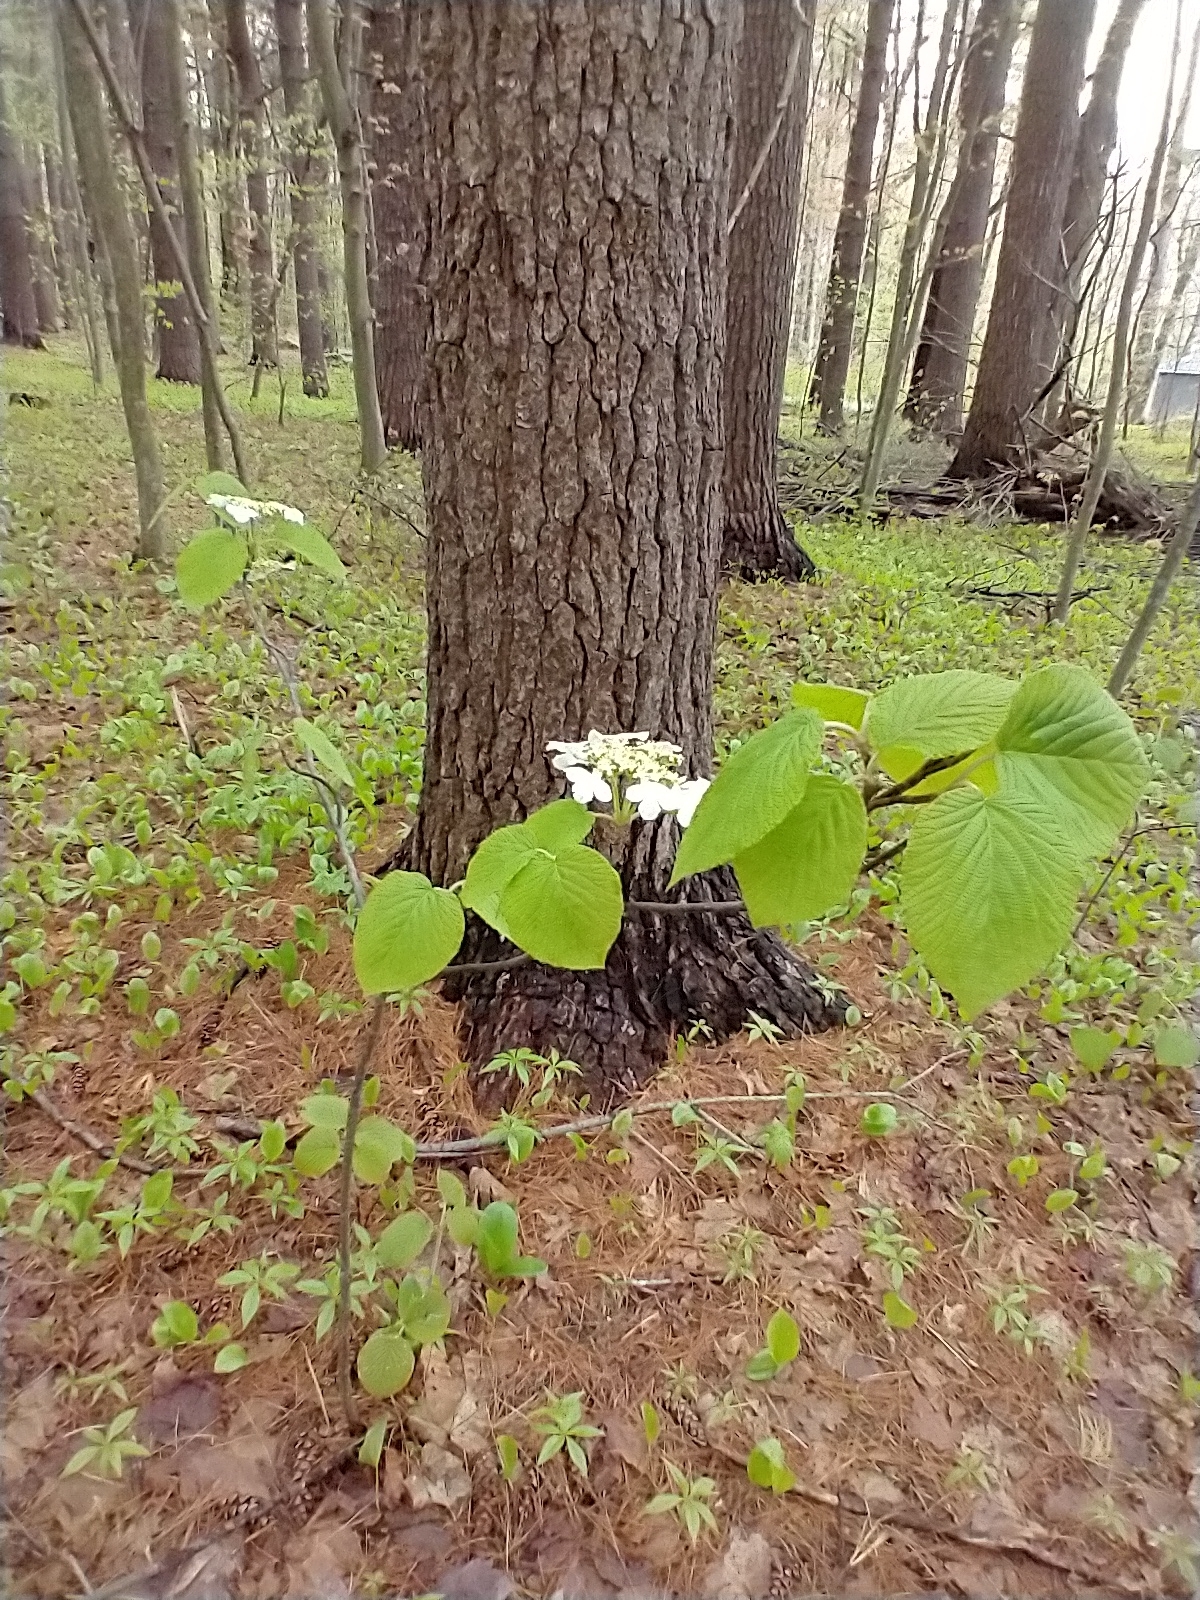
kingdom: Plantae
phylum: Tracheophyta
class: Magnoliopsida
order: Dipsacales
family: Viburnaceae
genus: Viburnum
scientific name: Viburnum lantanoides
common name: Hobblebush
